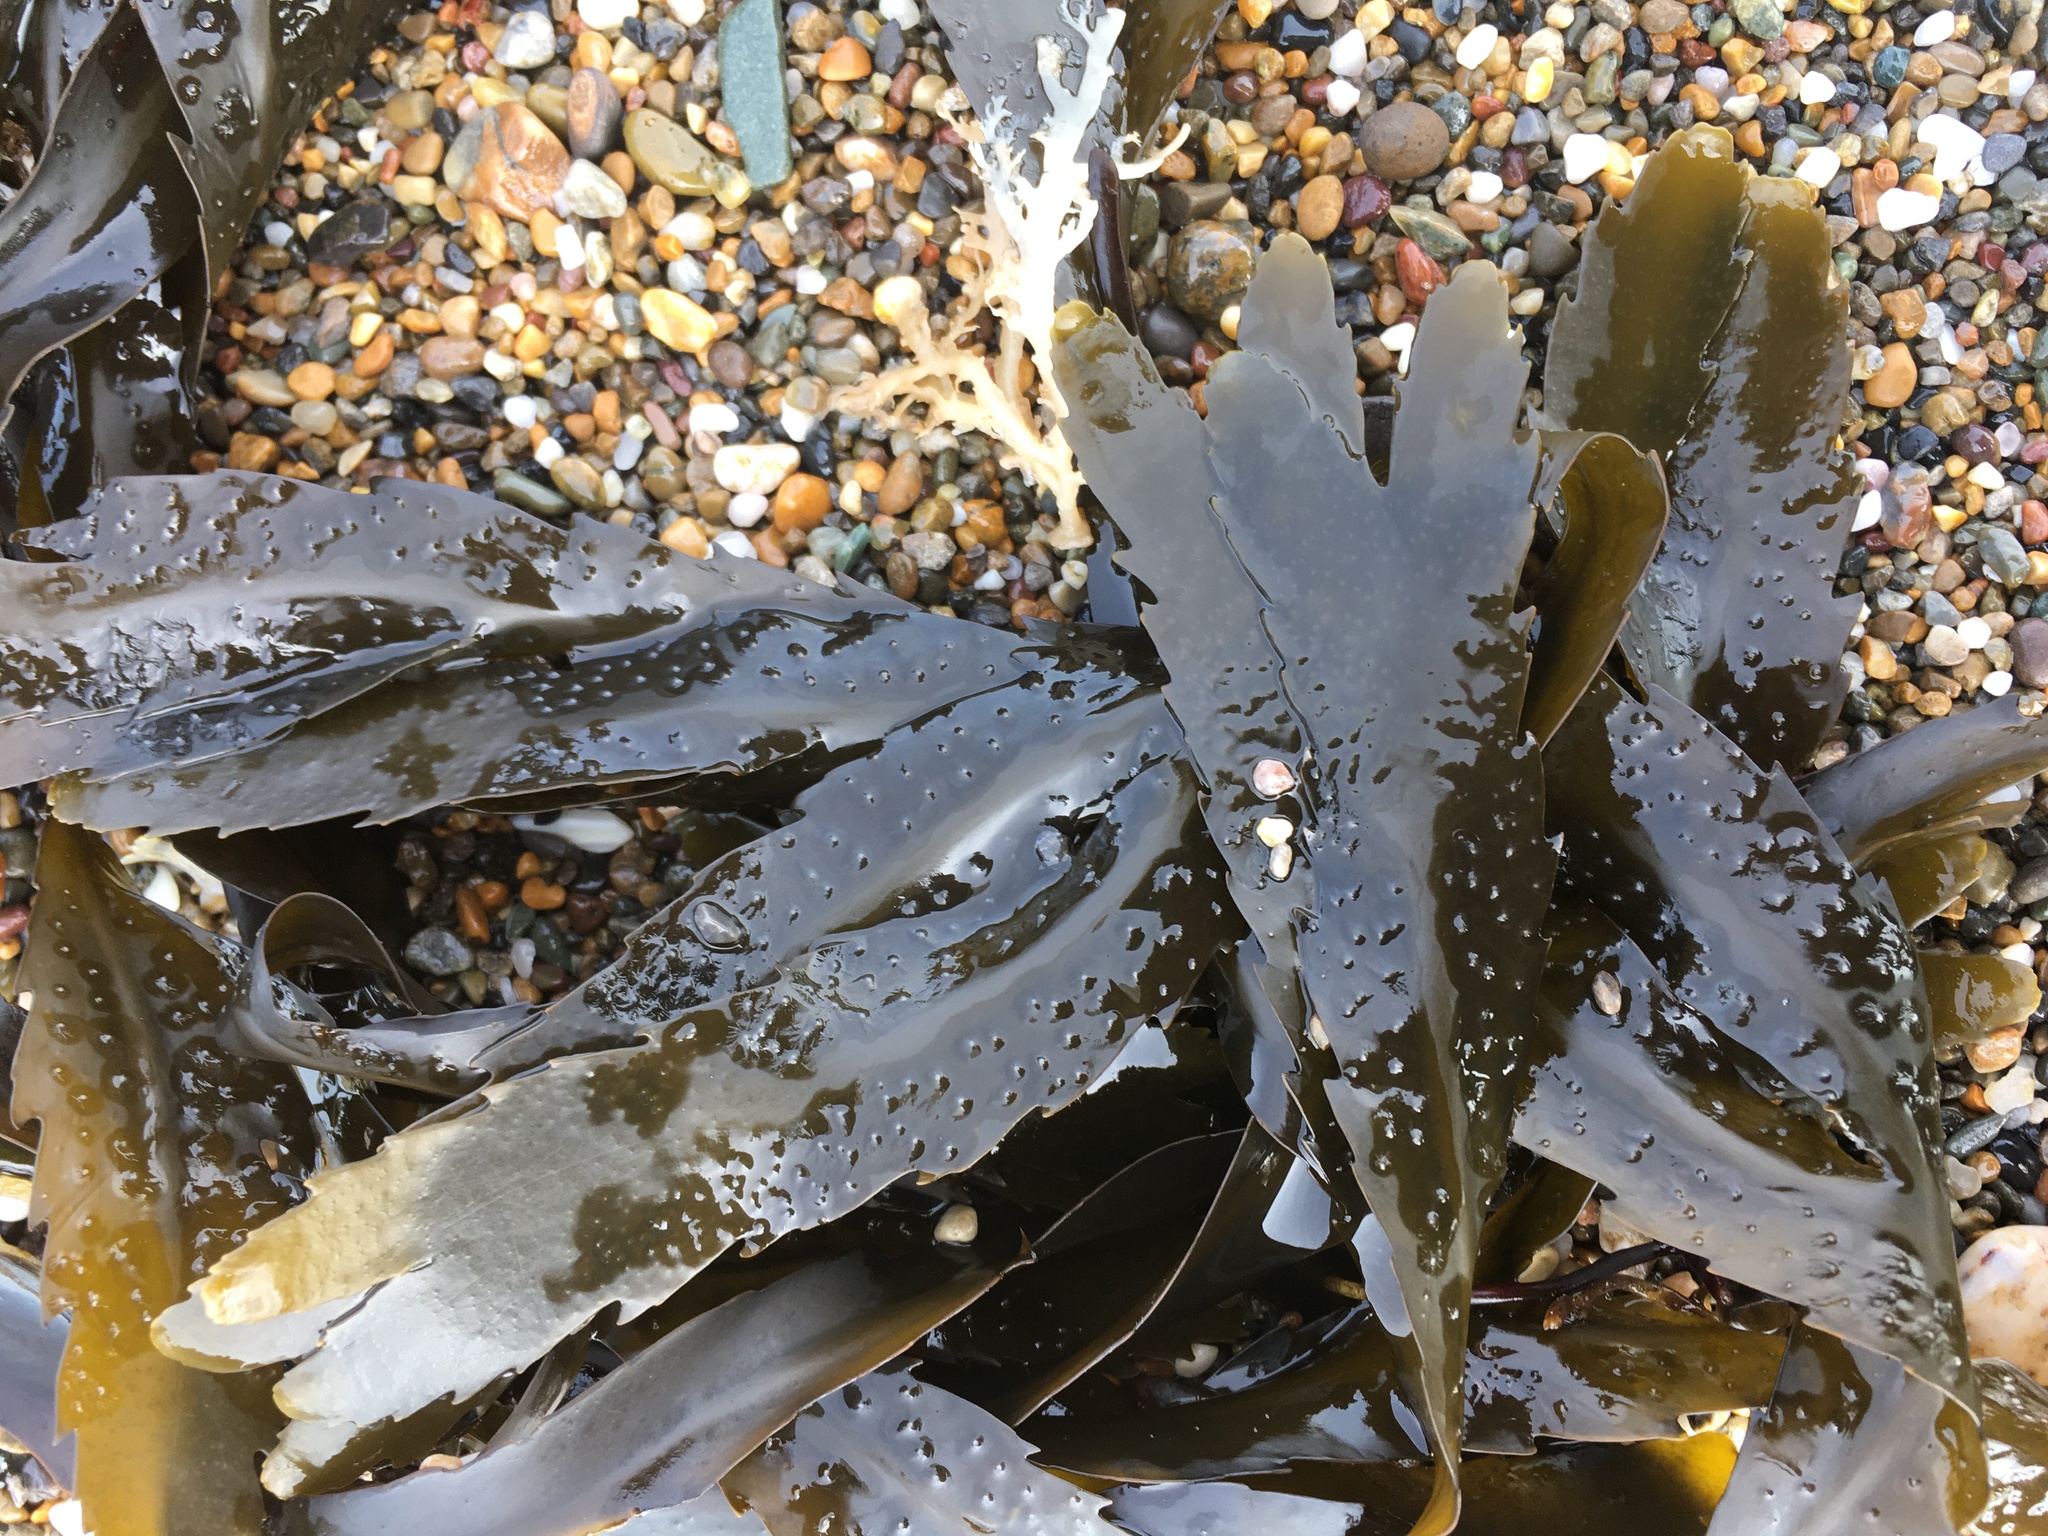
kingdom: Chromista
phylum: Ochrophyta
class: Phaeophyceae
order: Fucales
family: Fucaceae
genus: Fucus
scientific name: Fucus serratus
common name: Toothed wrack
